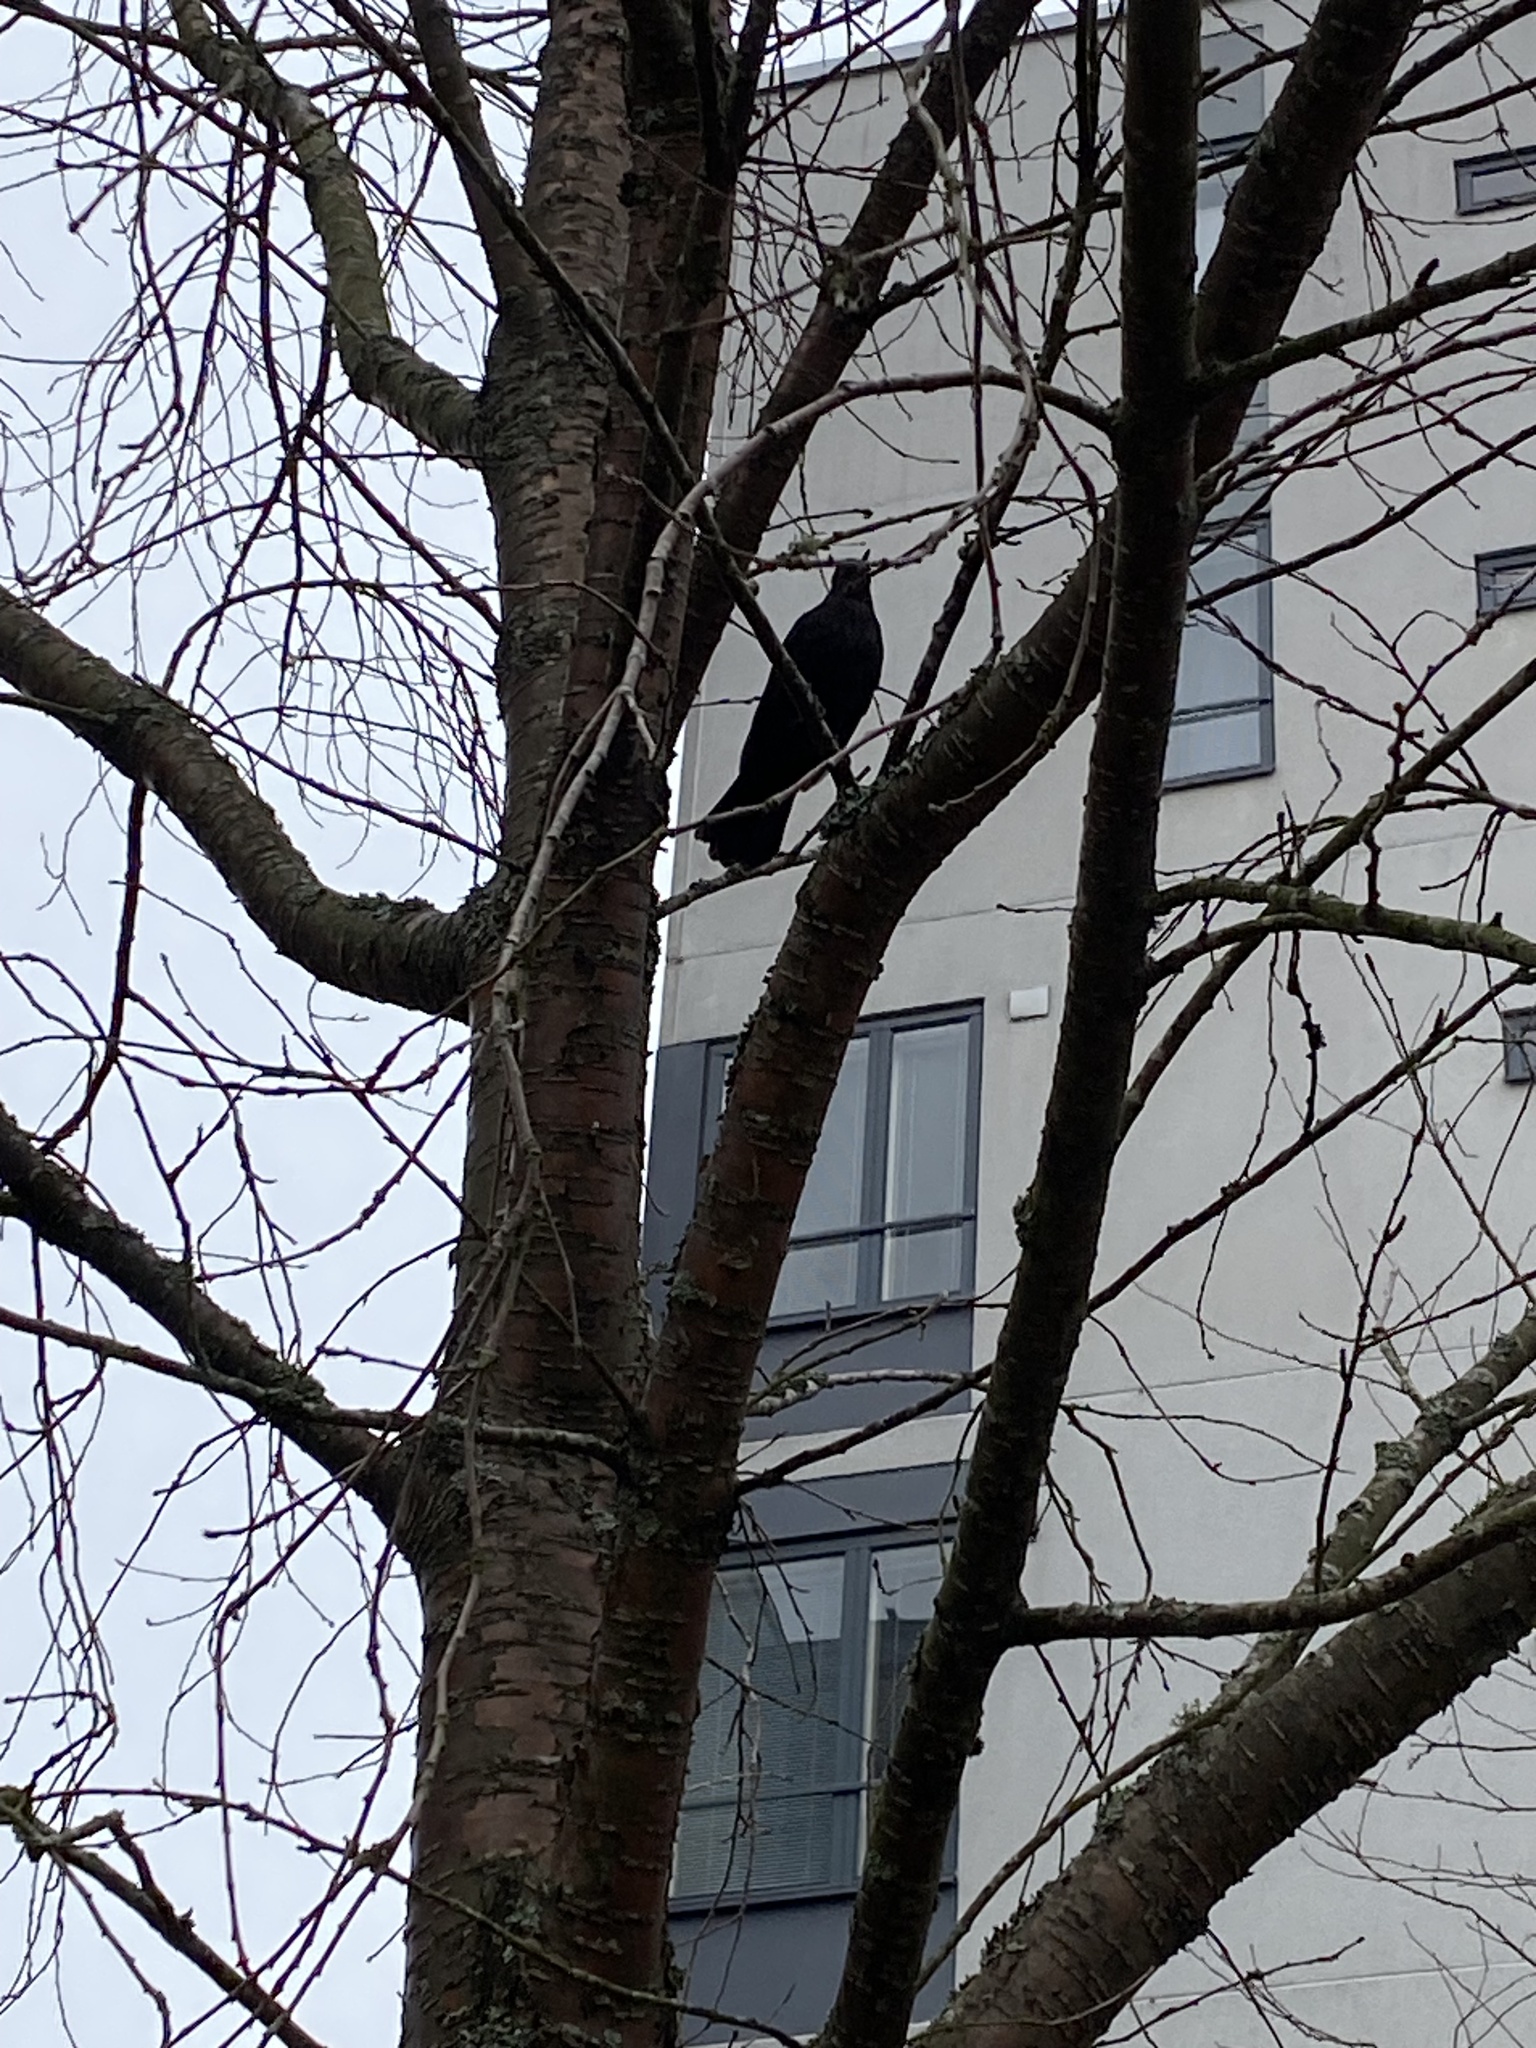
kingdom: Animalia
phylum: Chordata
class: Aves
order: Passeriformes
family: Turdidae
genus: Turdus
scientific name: Turdus merula
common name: Common blackbird
